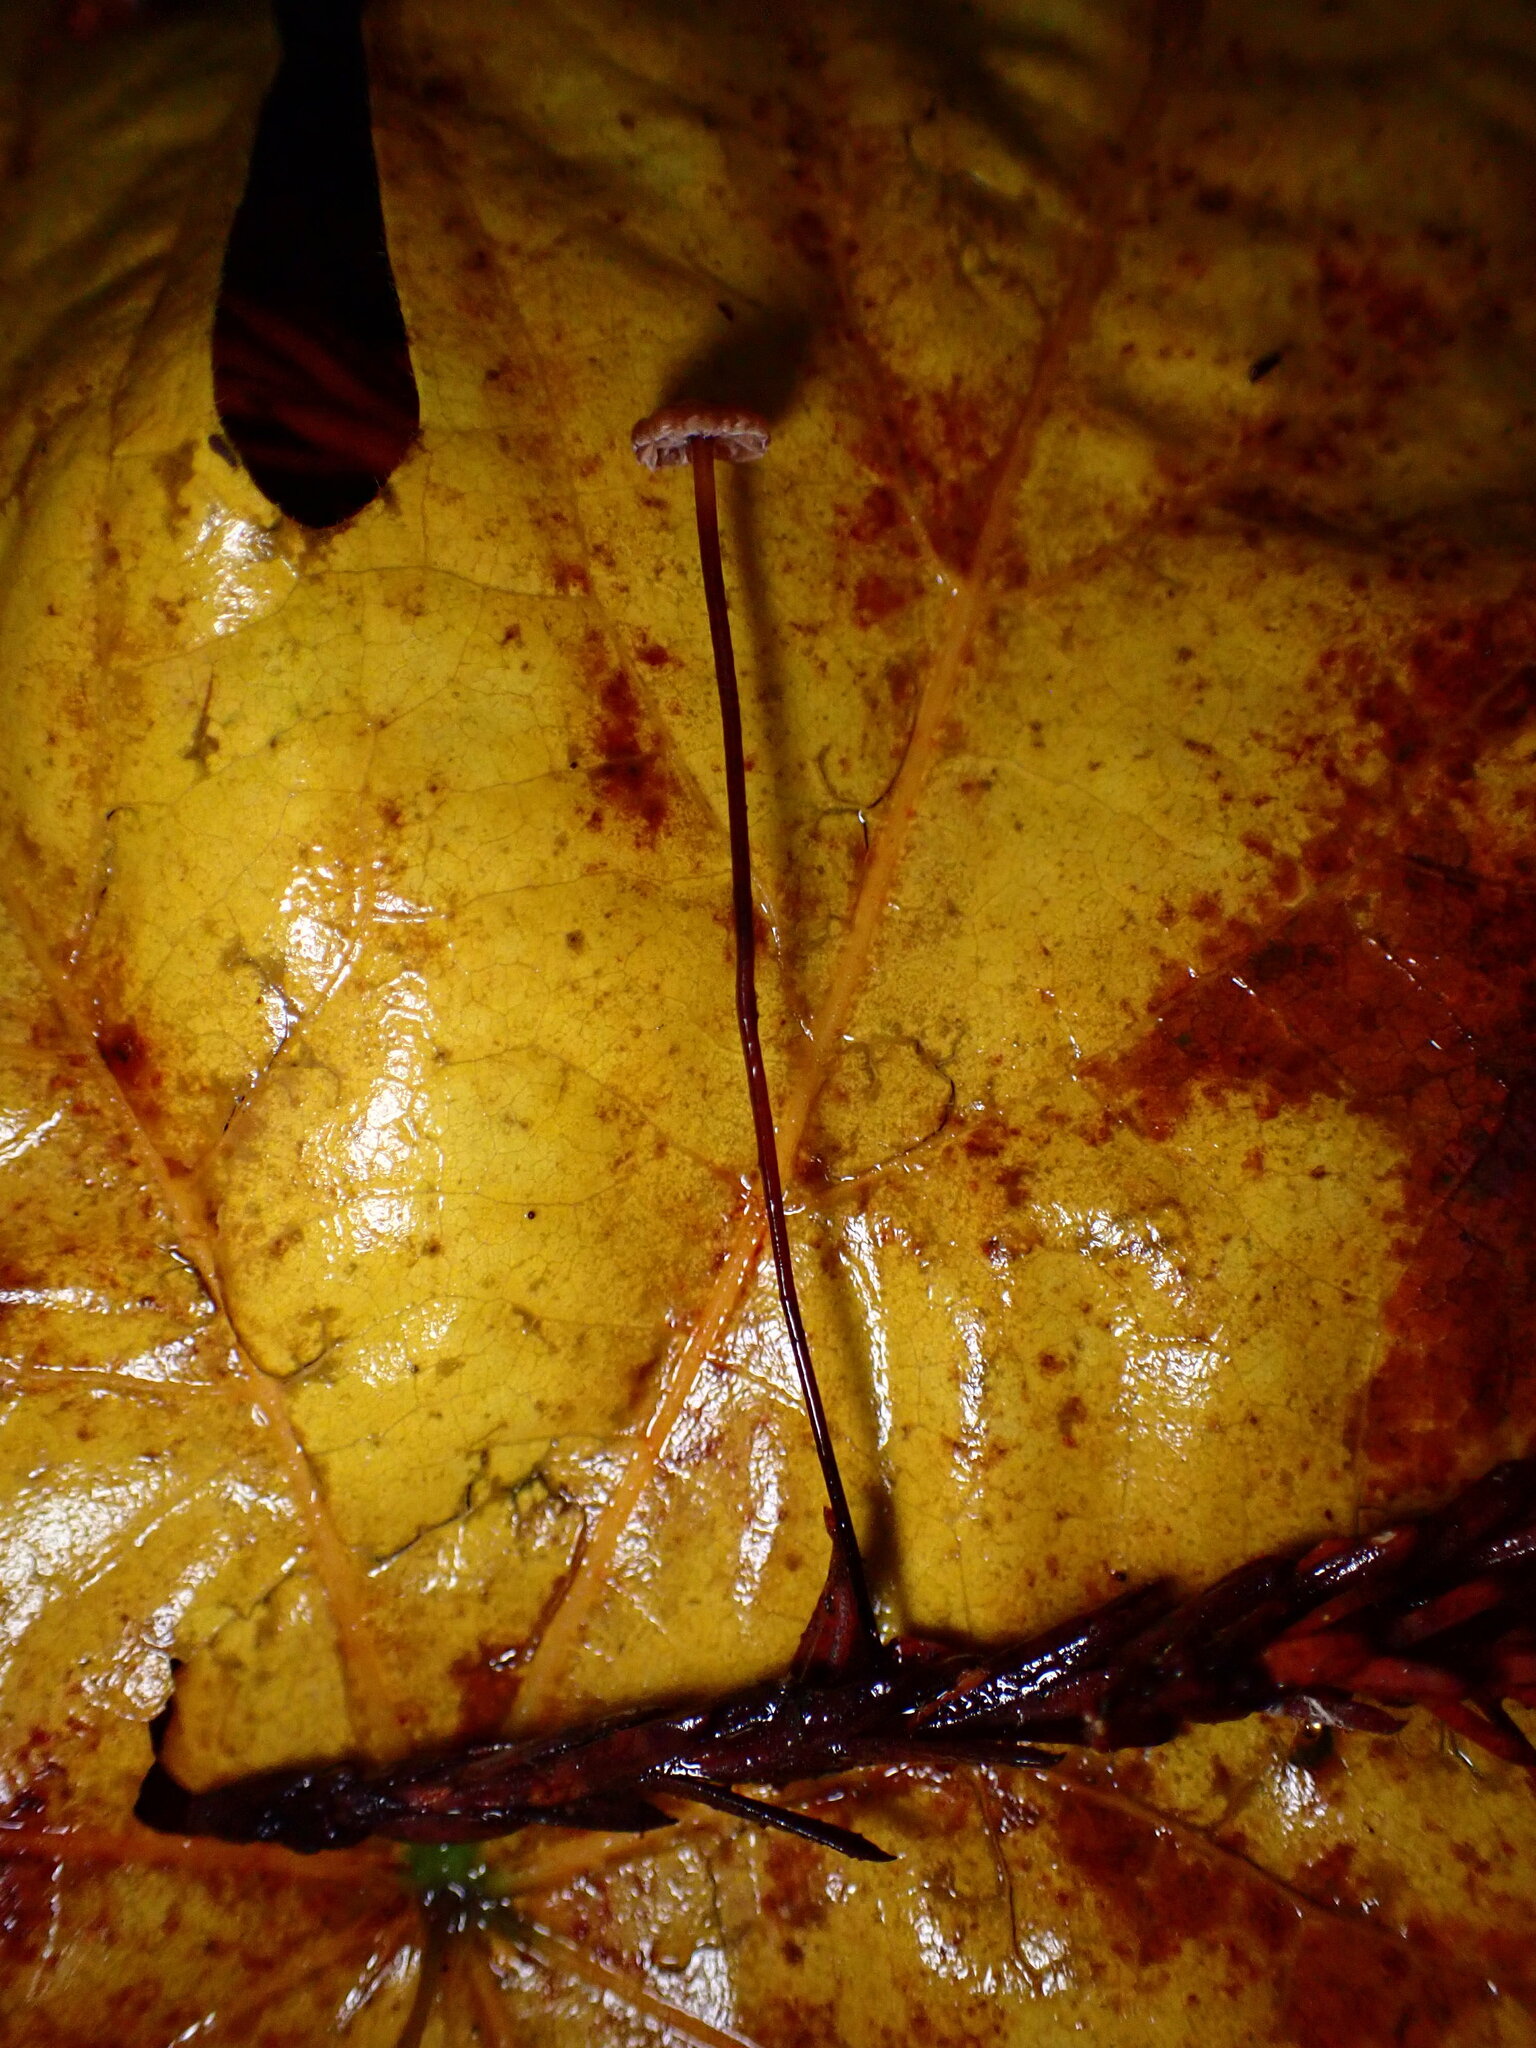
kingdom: Fungi
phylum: Basidiomycota
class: Agaricomycetes
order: Agaricales
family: Omphalotaceae
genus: Paragymnopus
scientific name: Paragymnopus sequoiae
